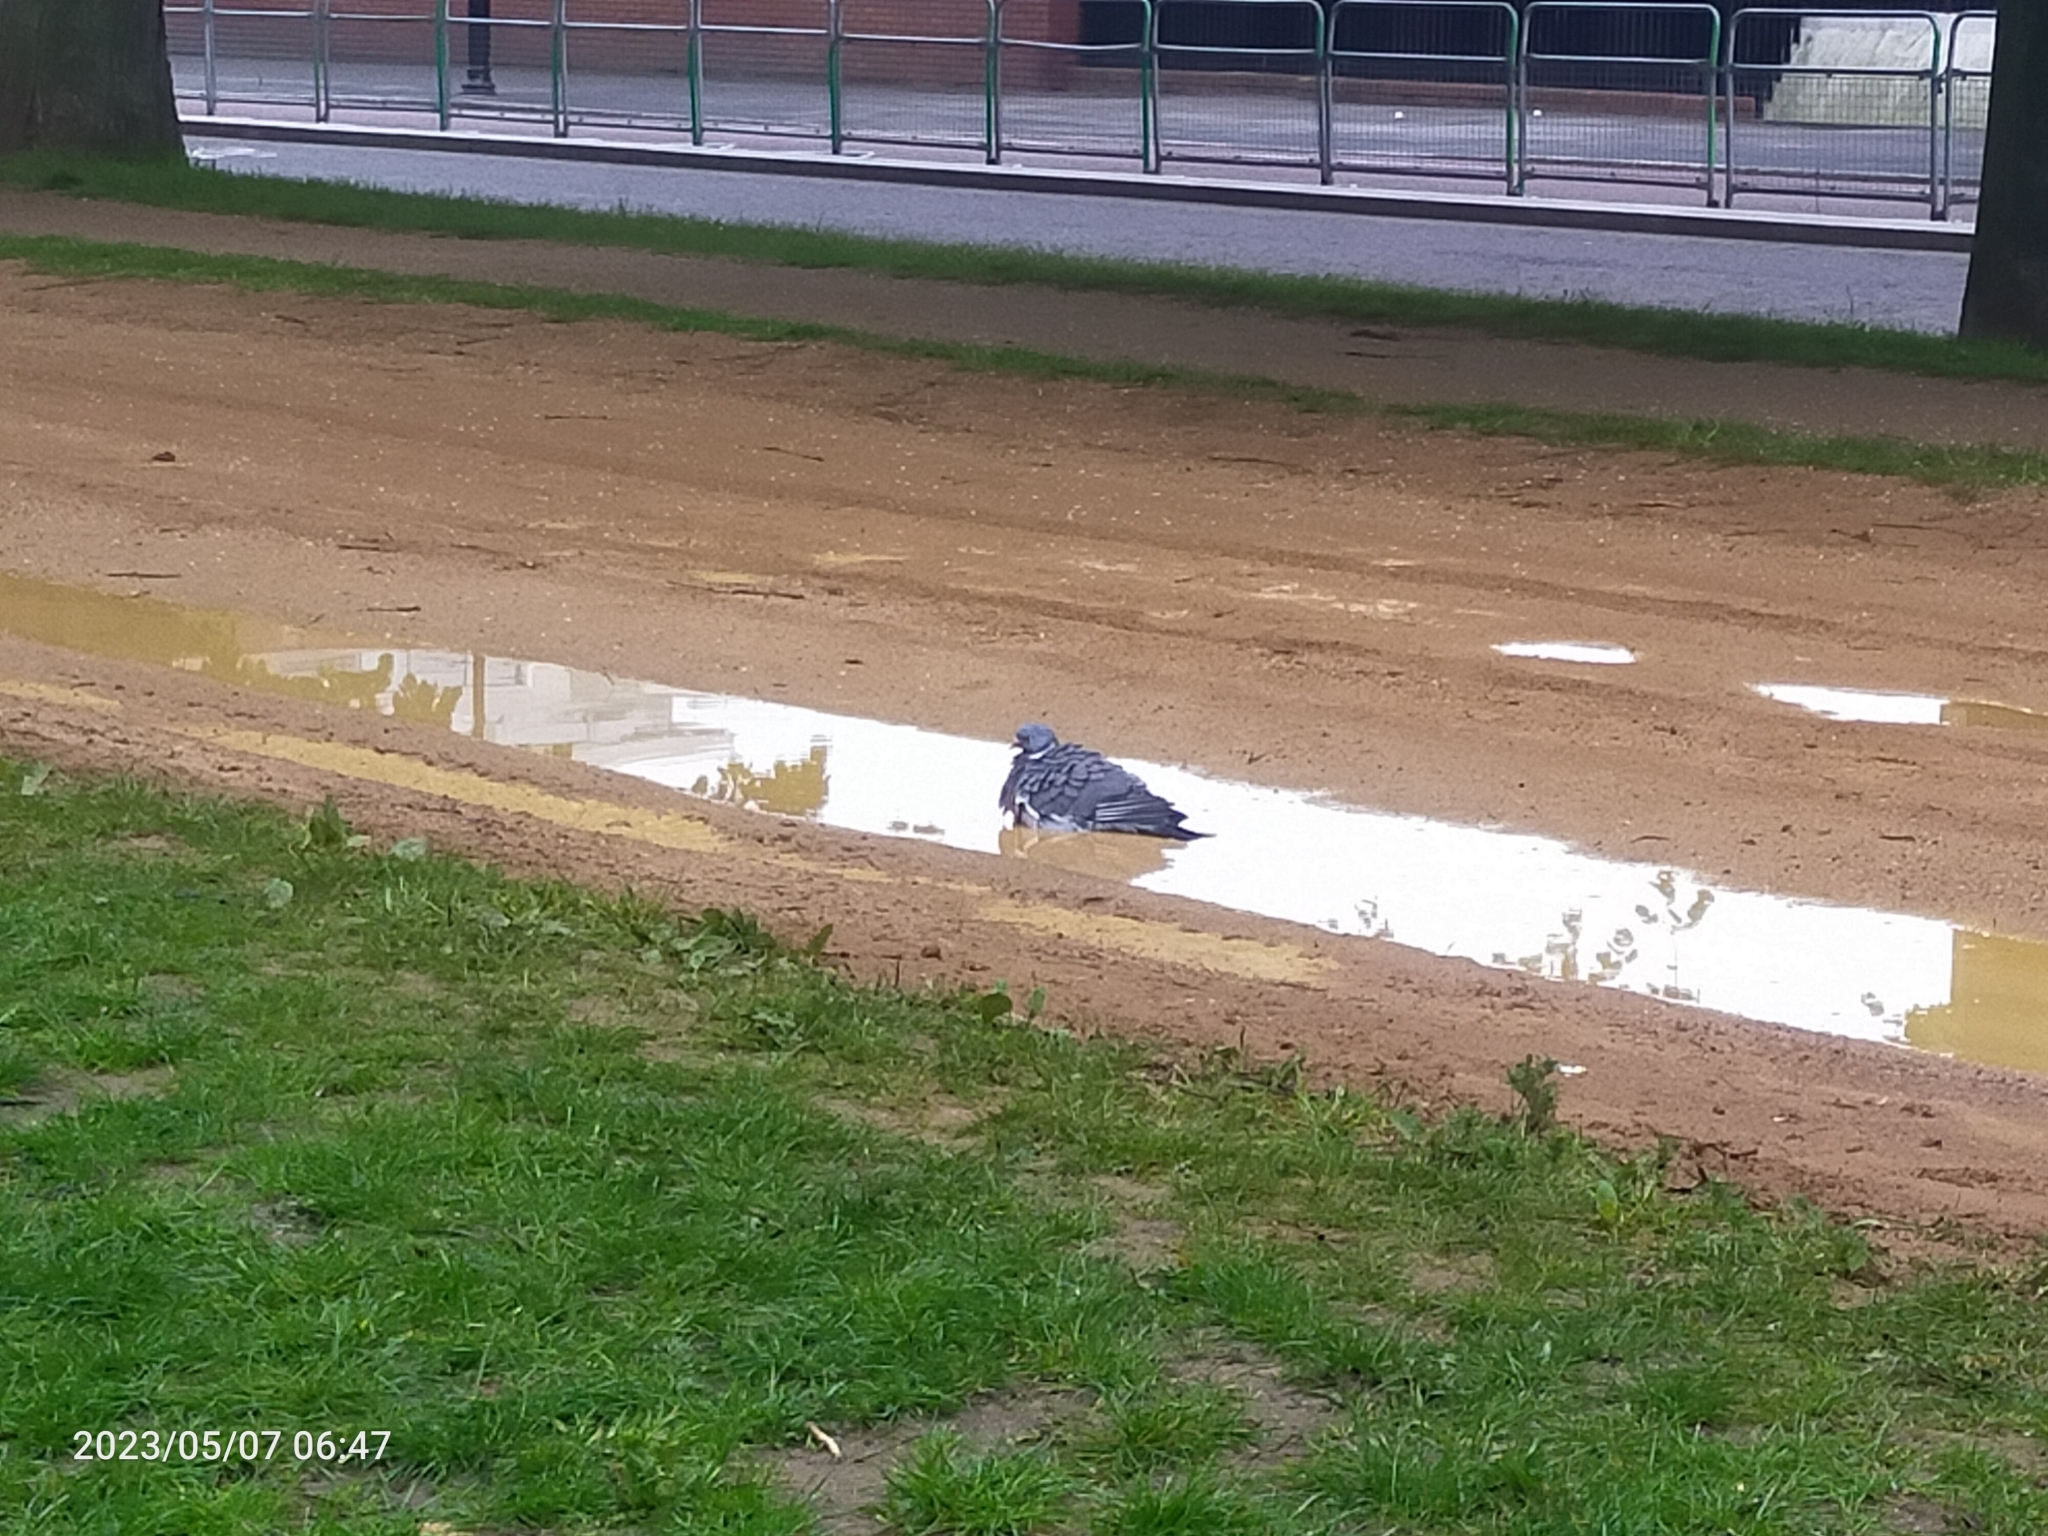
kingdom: Animalia
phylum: Chordata
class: Aves
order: Columbiformes
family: Columbidae
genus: Columba
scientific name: Columba palumbus
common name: Common wood pigeon
